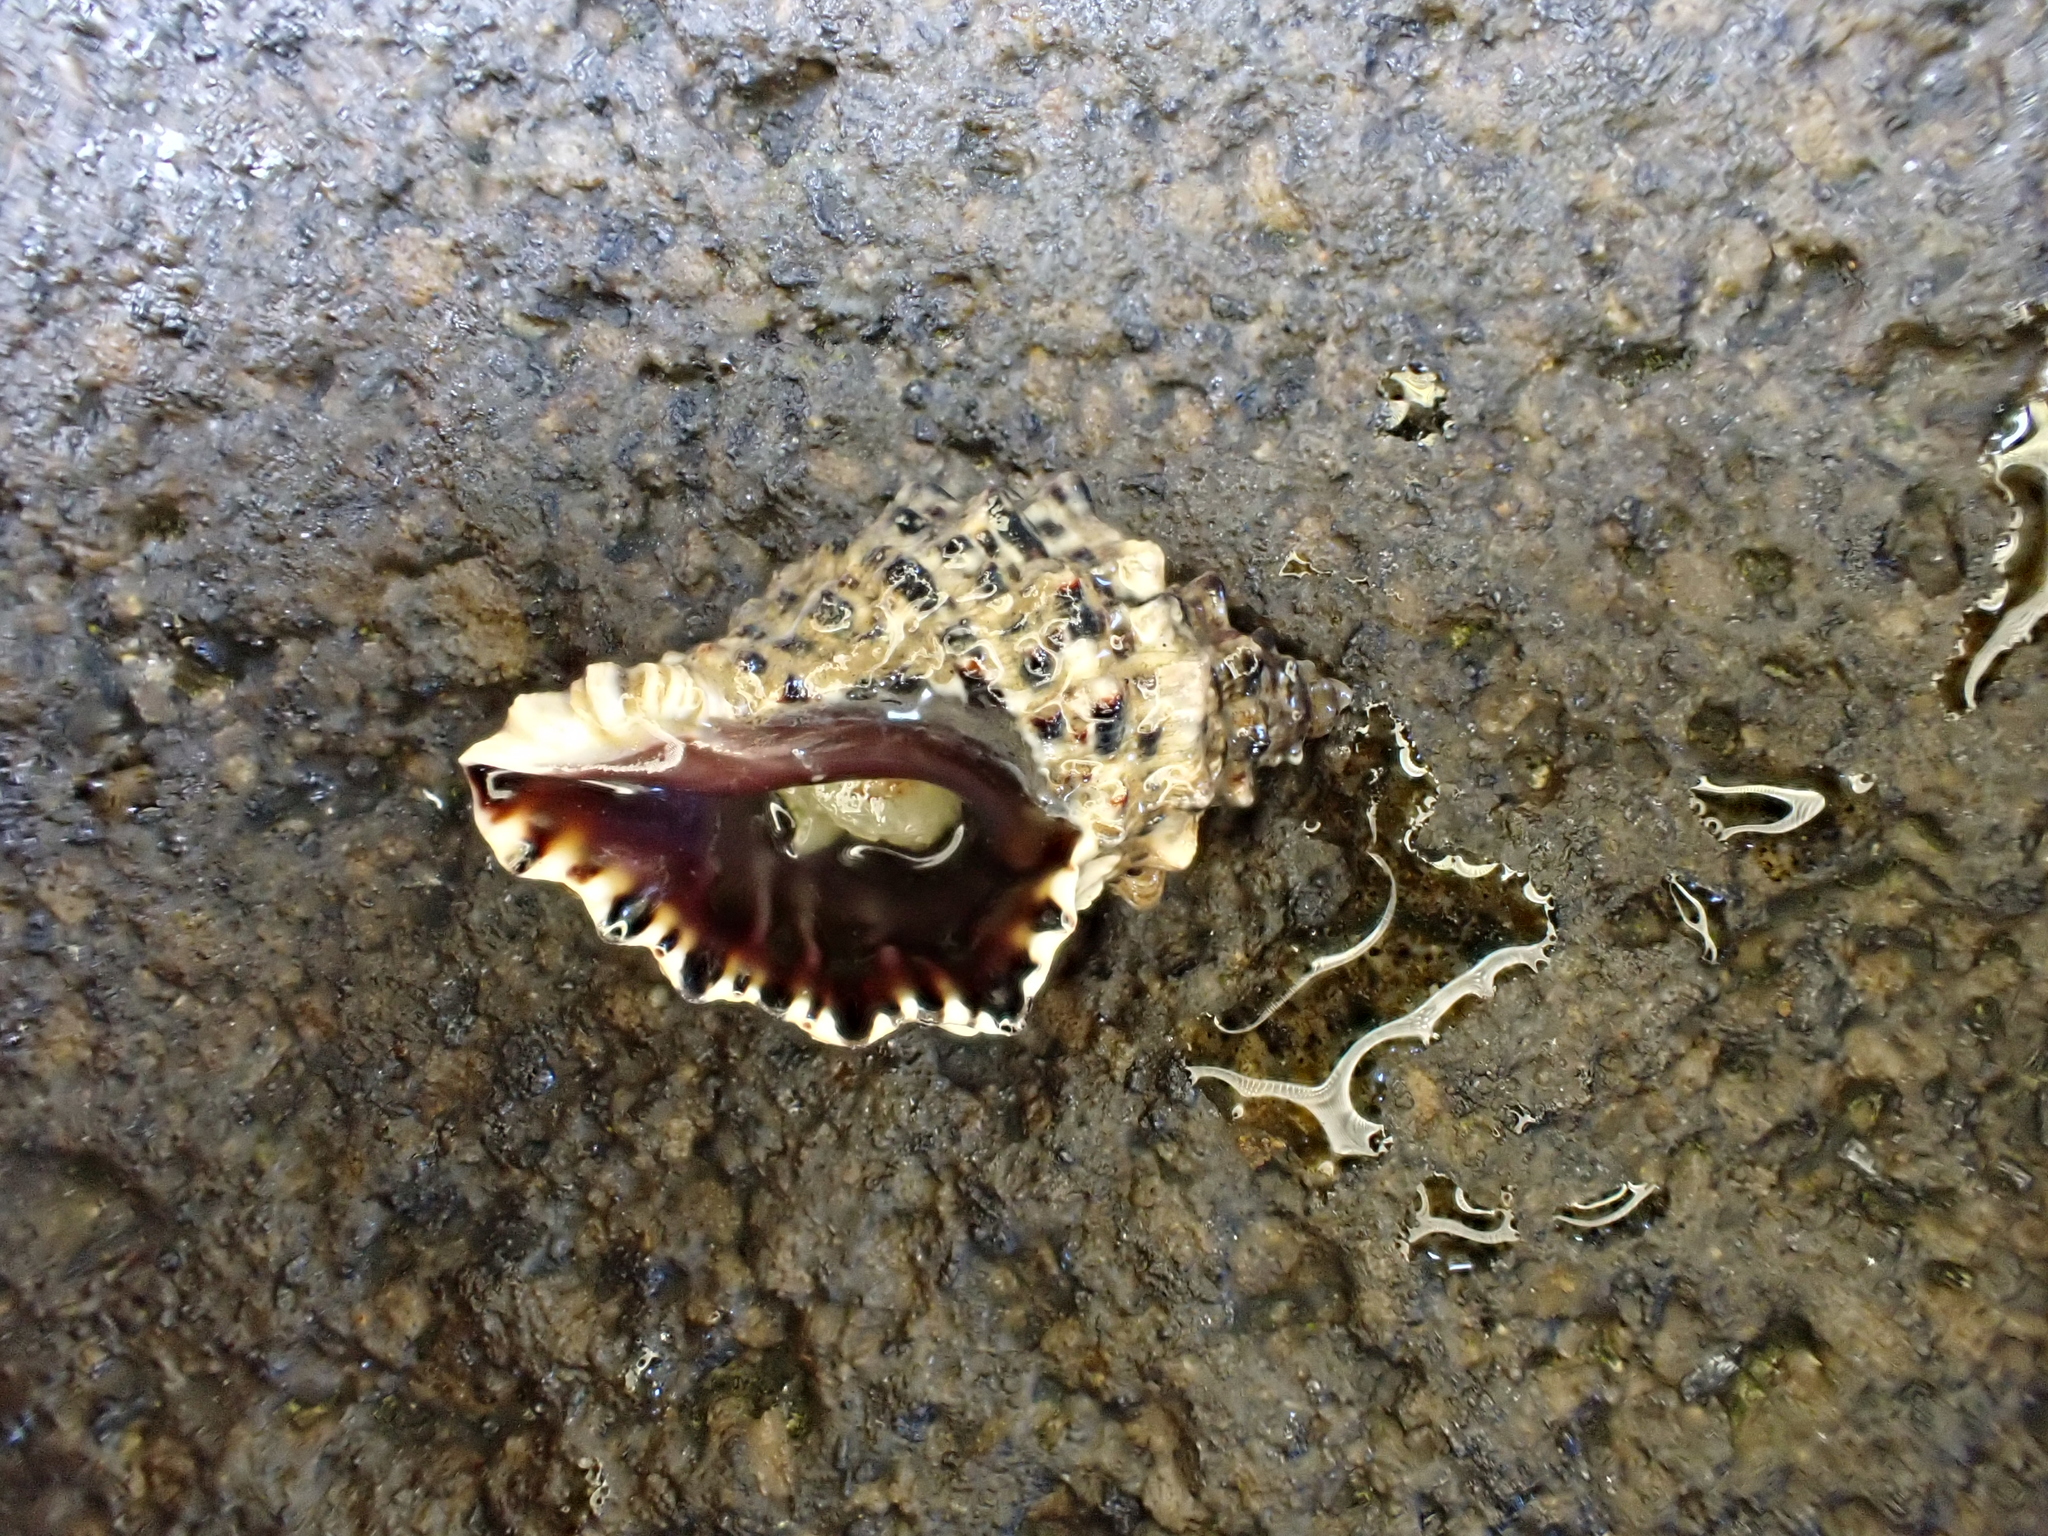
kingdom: Animalia
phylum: Mollusca
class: Gastropoda
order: Neogastropoda
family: Muricidae
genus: Haustrum
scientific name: Haustrum scobina
